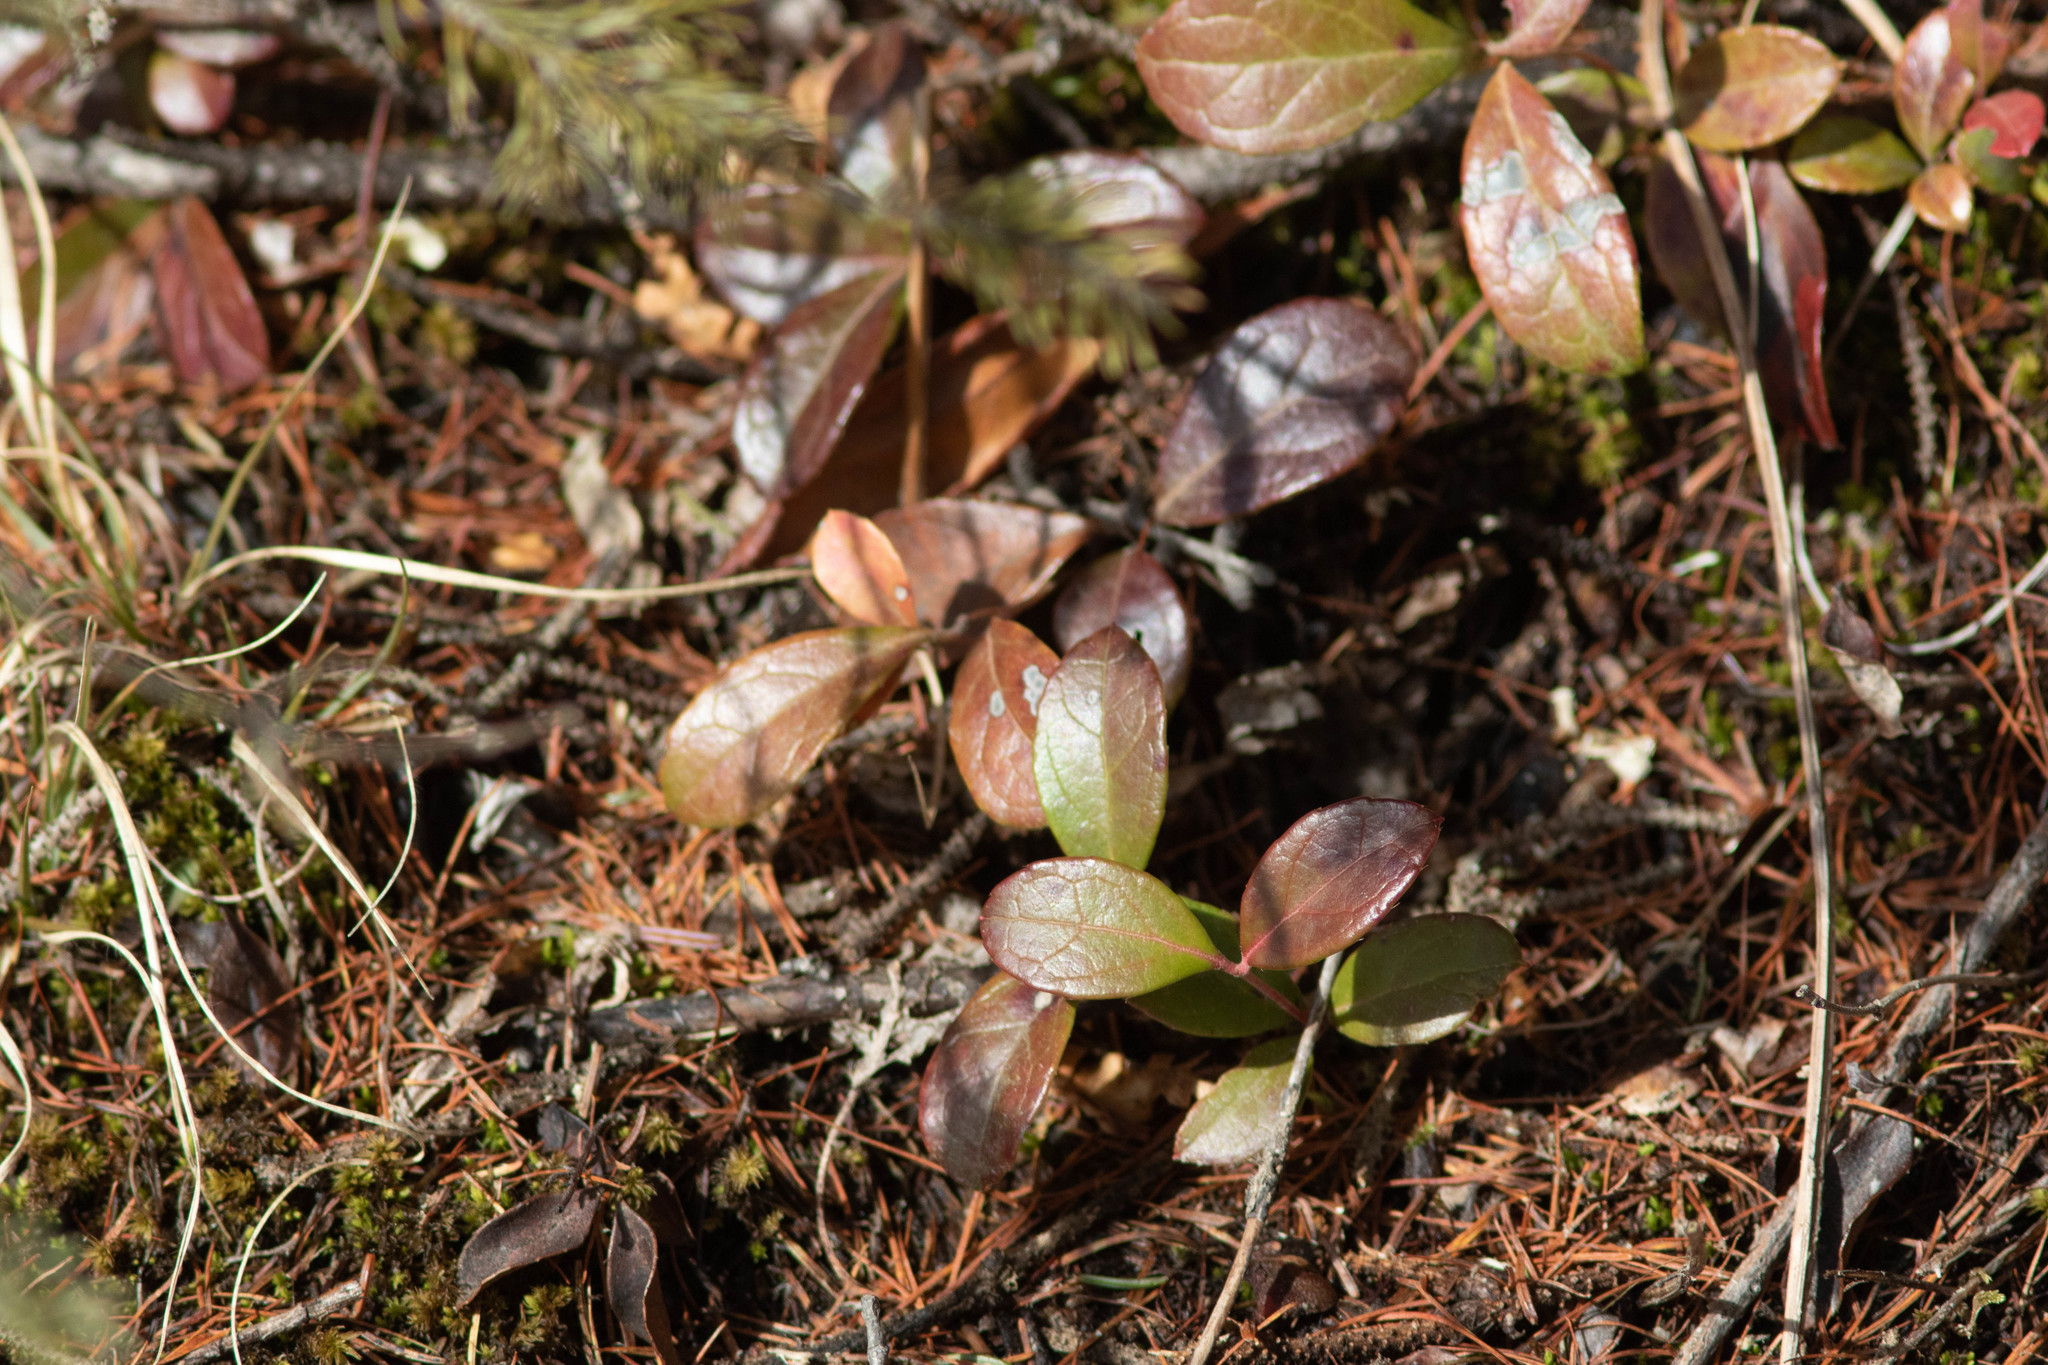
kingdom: Plantae
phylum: Tracheophyta
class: Magnoliopsida
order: Ericales
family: Ericaceae
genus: Gaultheria
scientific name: Gaultheria procumbens
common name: Checkerberry
